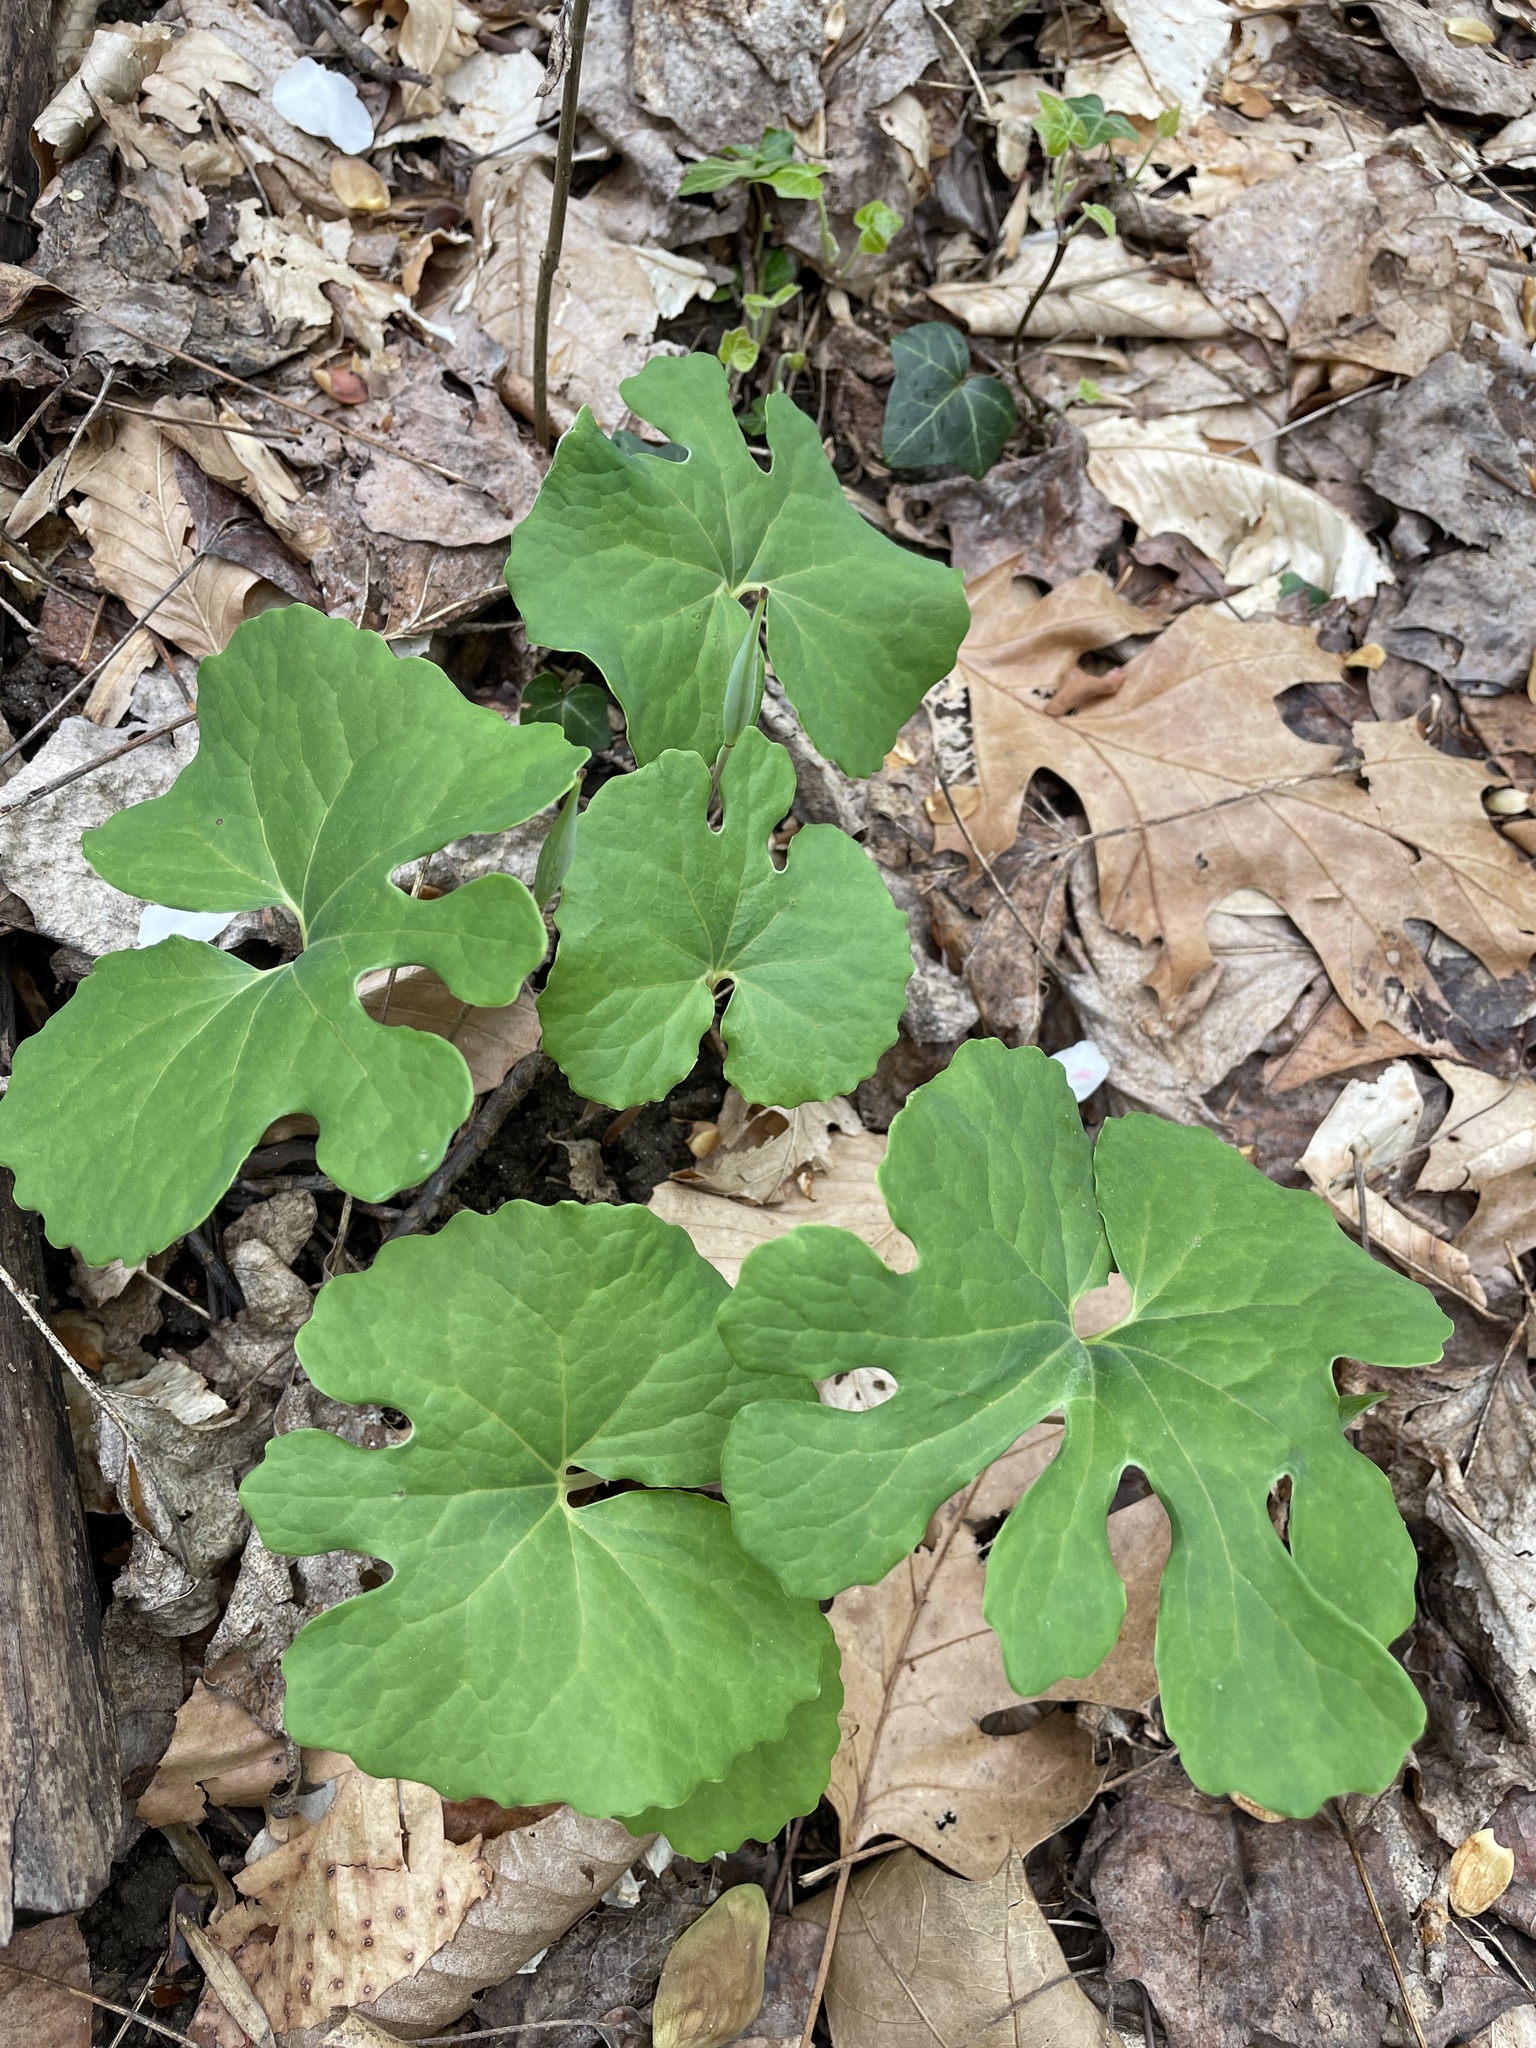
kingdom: Plantae
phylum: Tracheophyta
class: Magnoliopsida
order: Ranunculales
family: Papaveraceae
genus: Sanguinaria
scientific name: Sanguinaria canadensis
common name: Bloodroot
